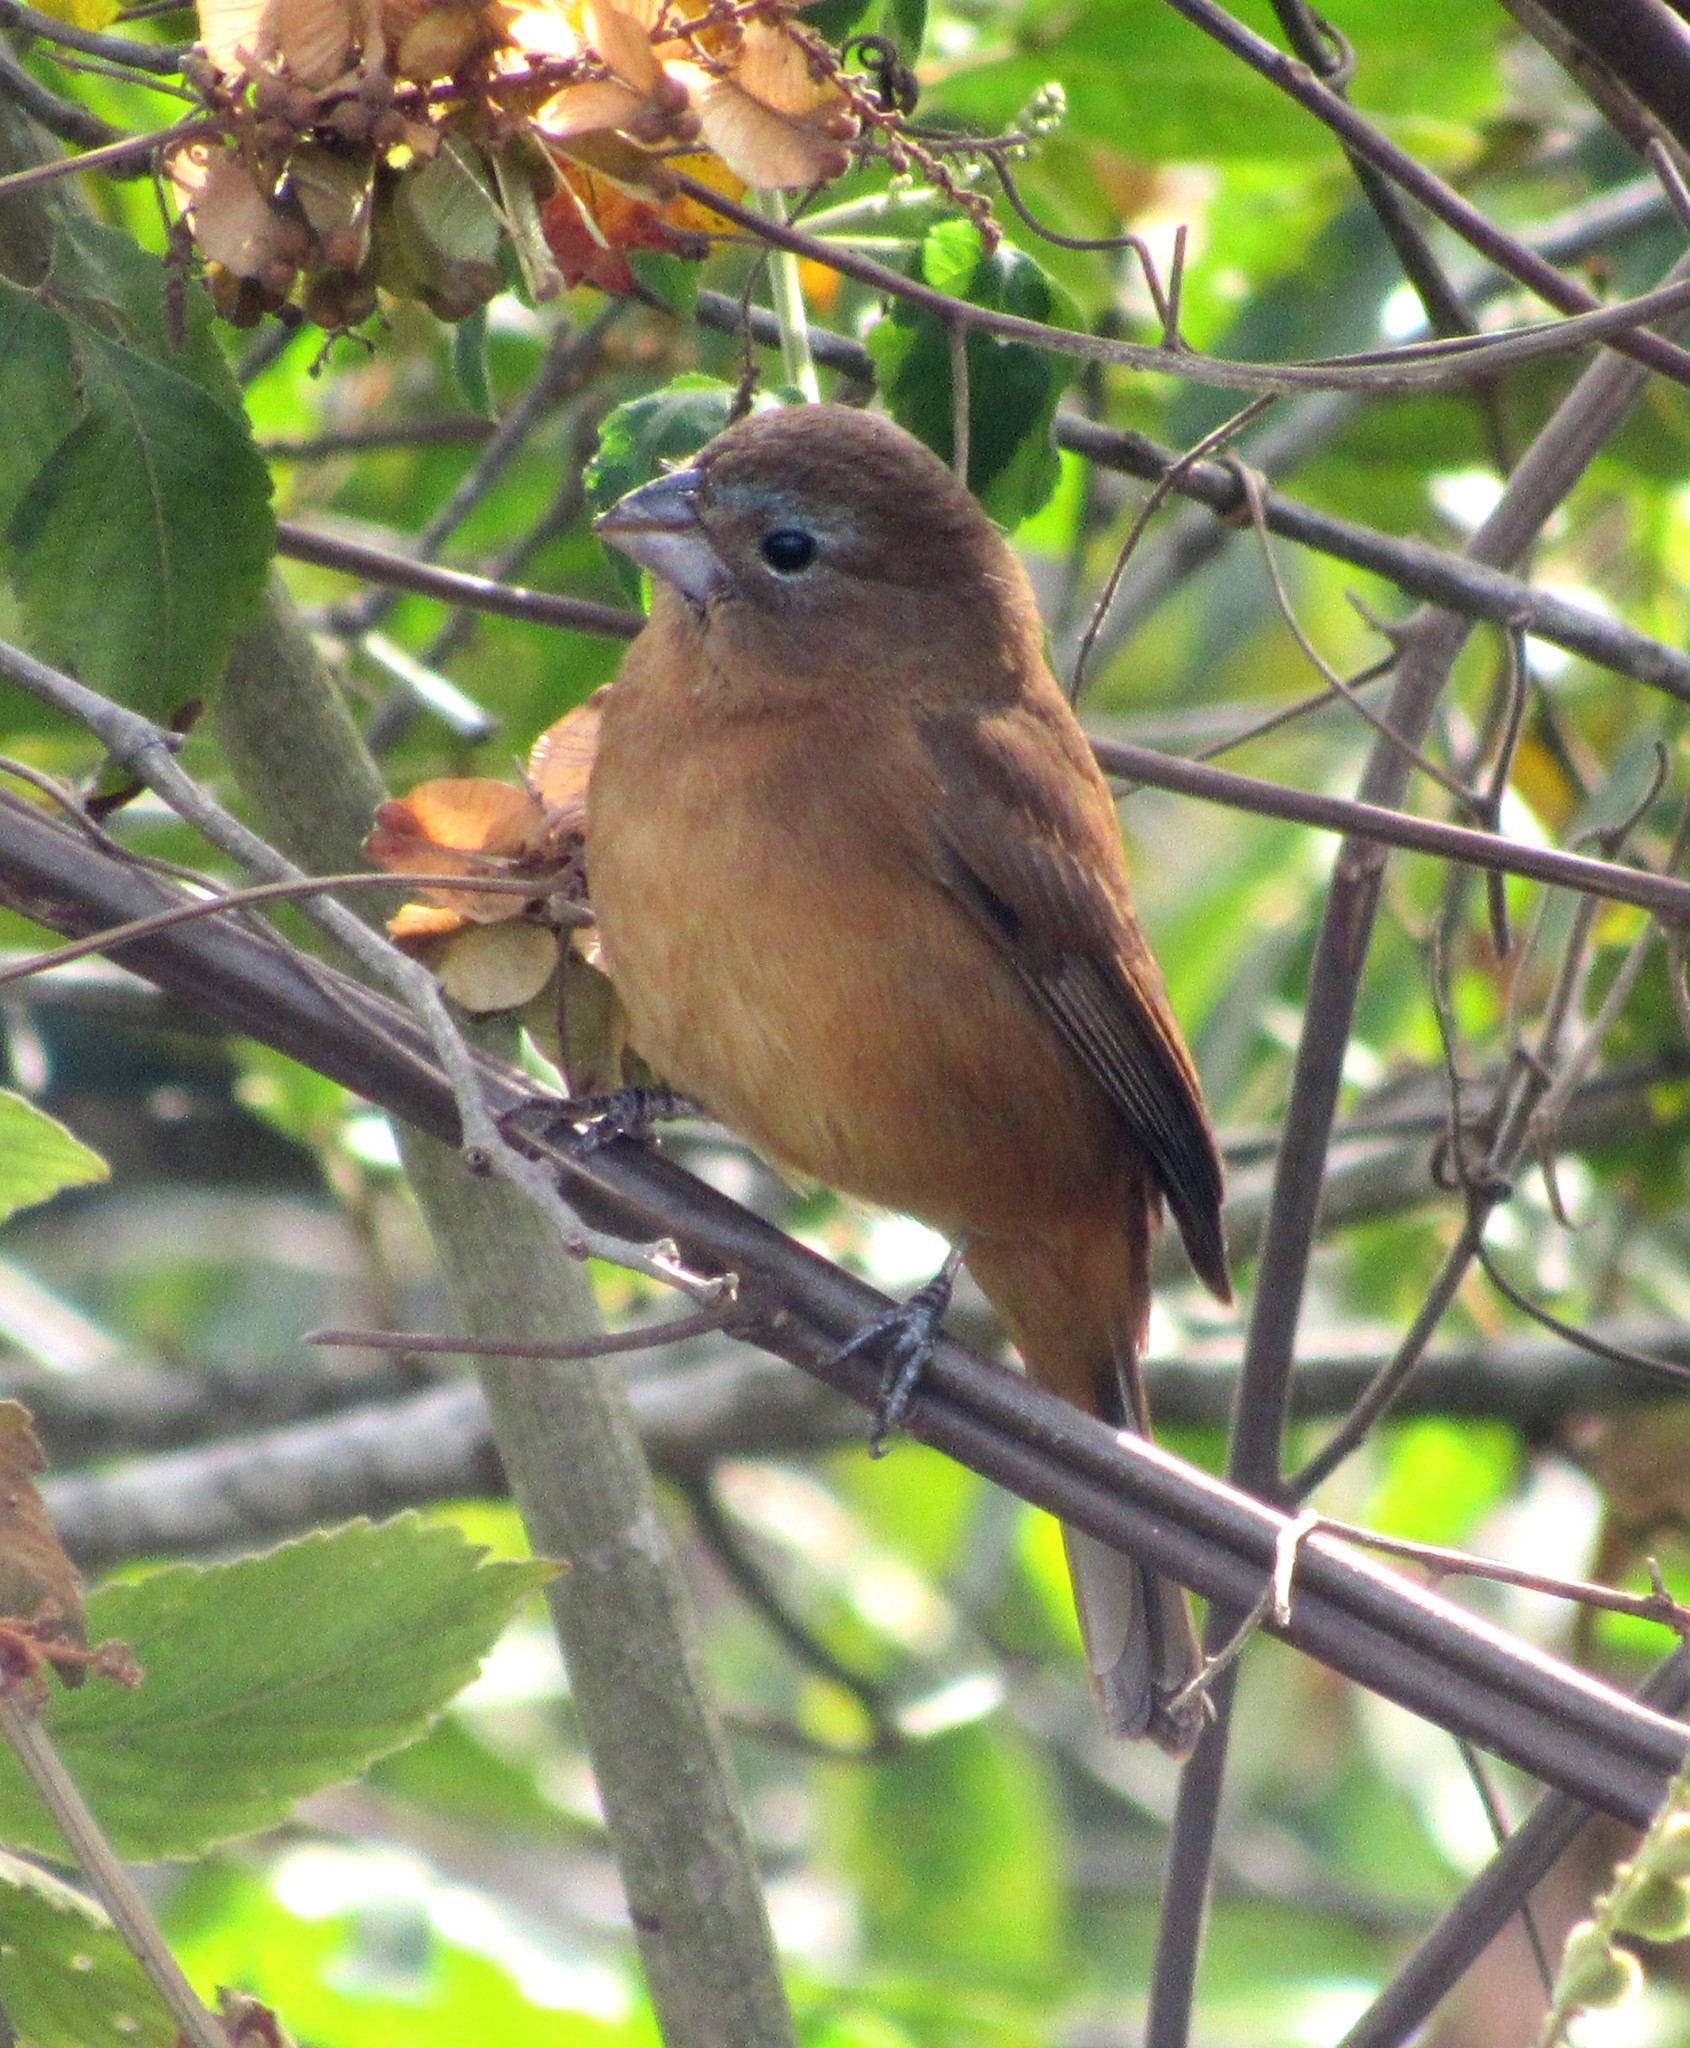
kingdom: Animalia
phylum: Chordata
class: Aves
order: Passeriformes
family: Cardinalidae
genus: Cyanoloxia
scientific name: Cyanoloxia glaucocaerulea
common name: Glaucous-blue grosbeak
